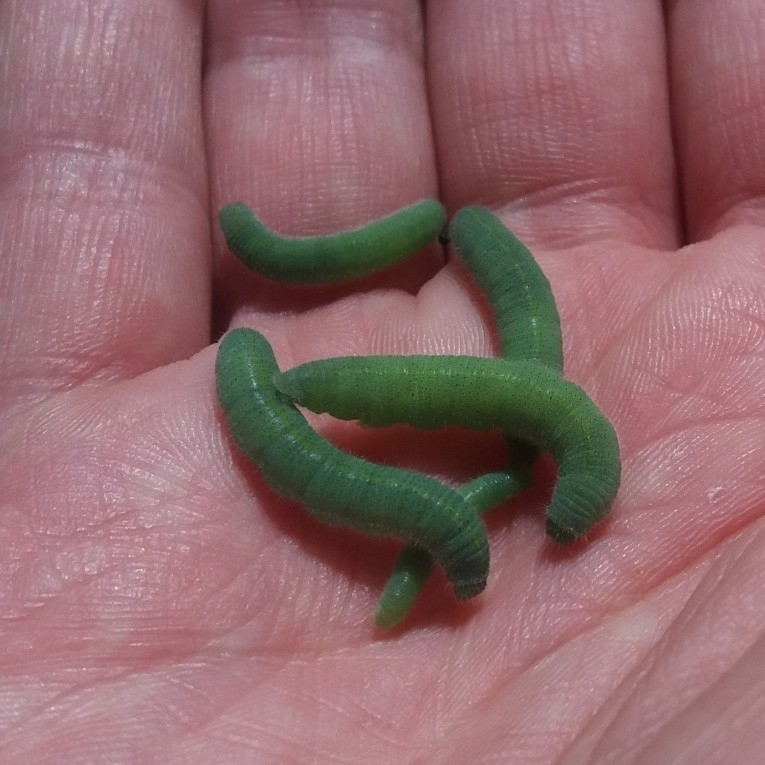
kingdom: Animalia
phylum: Arthropoda
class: Insecta
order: Lepidoptera
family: Pieridae
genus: Pieris
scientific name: Pieris rapae
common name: Small white
